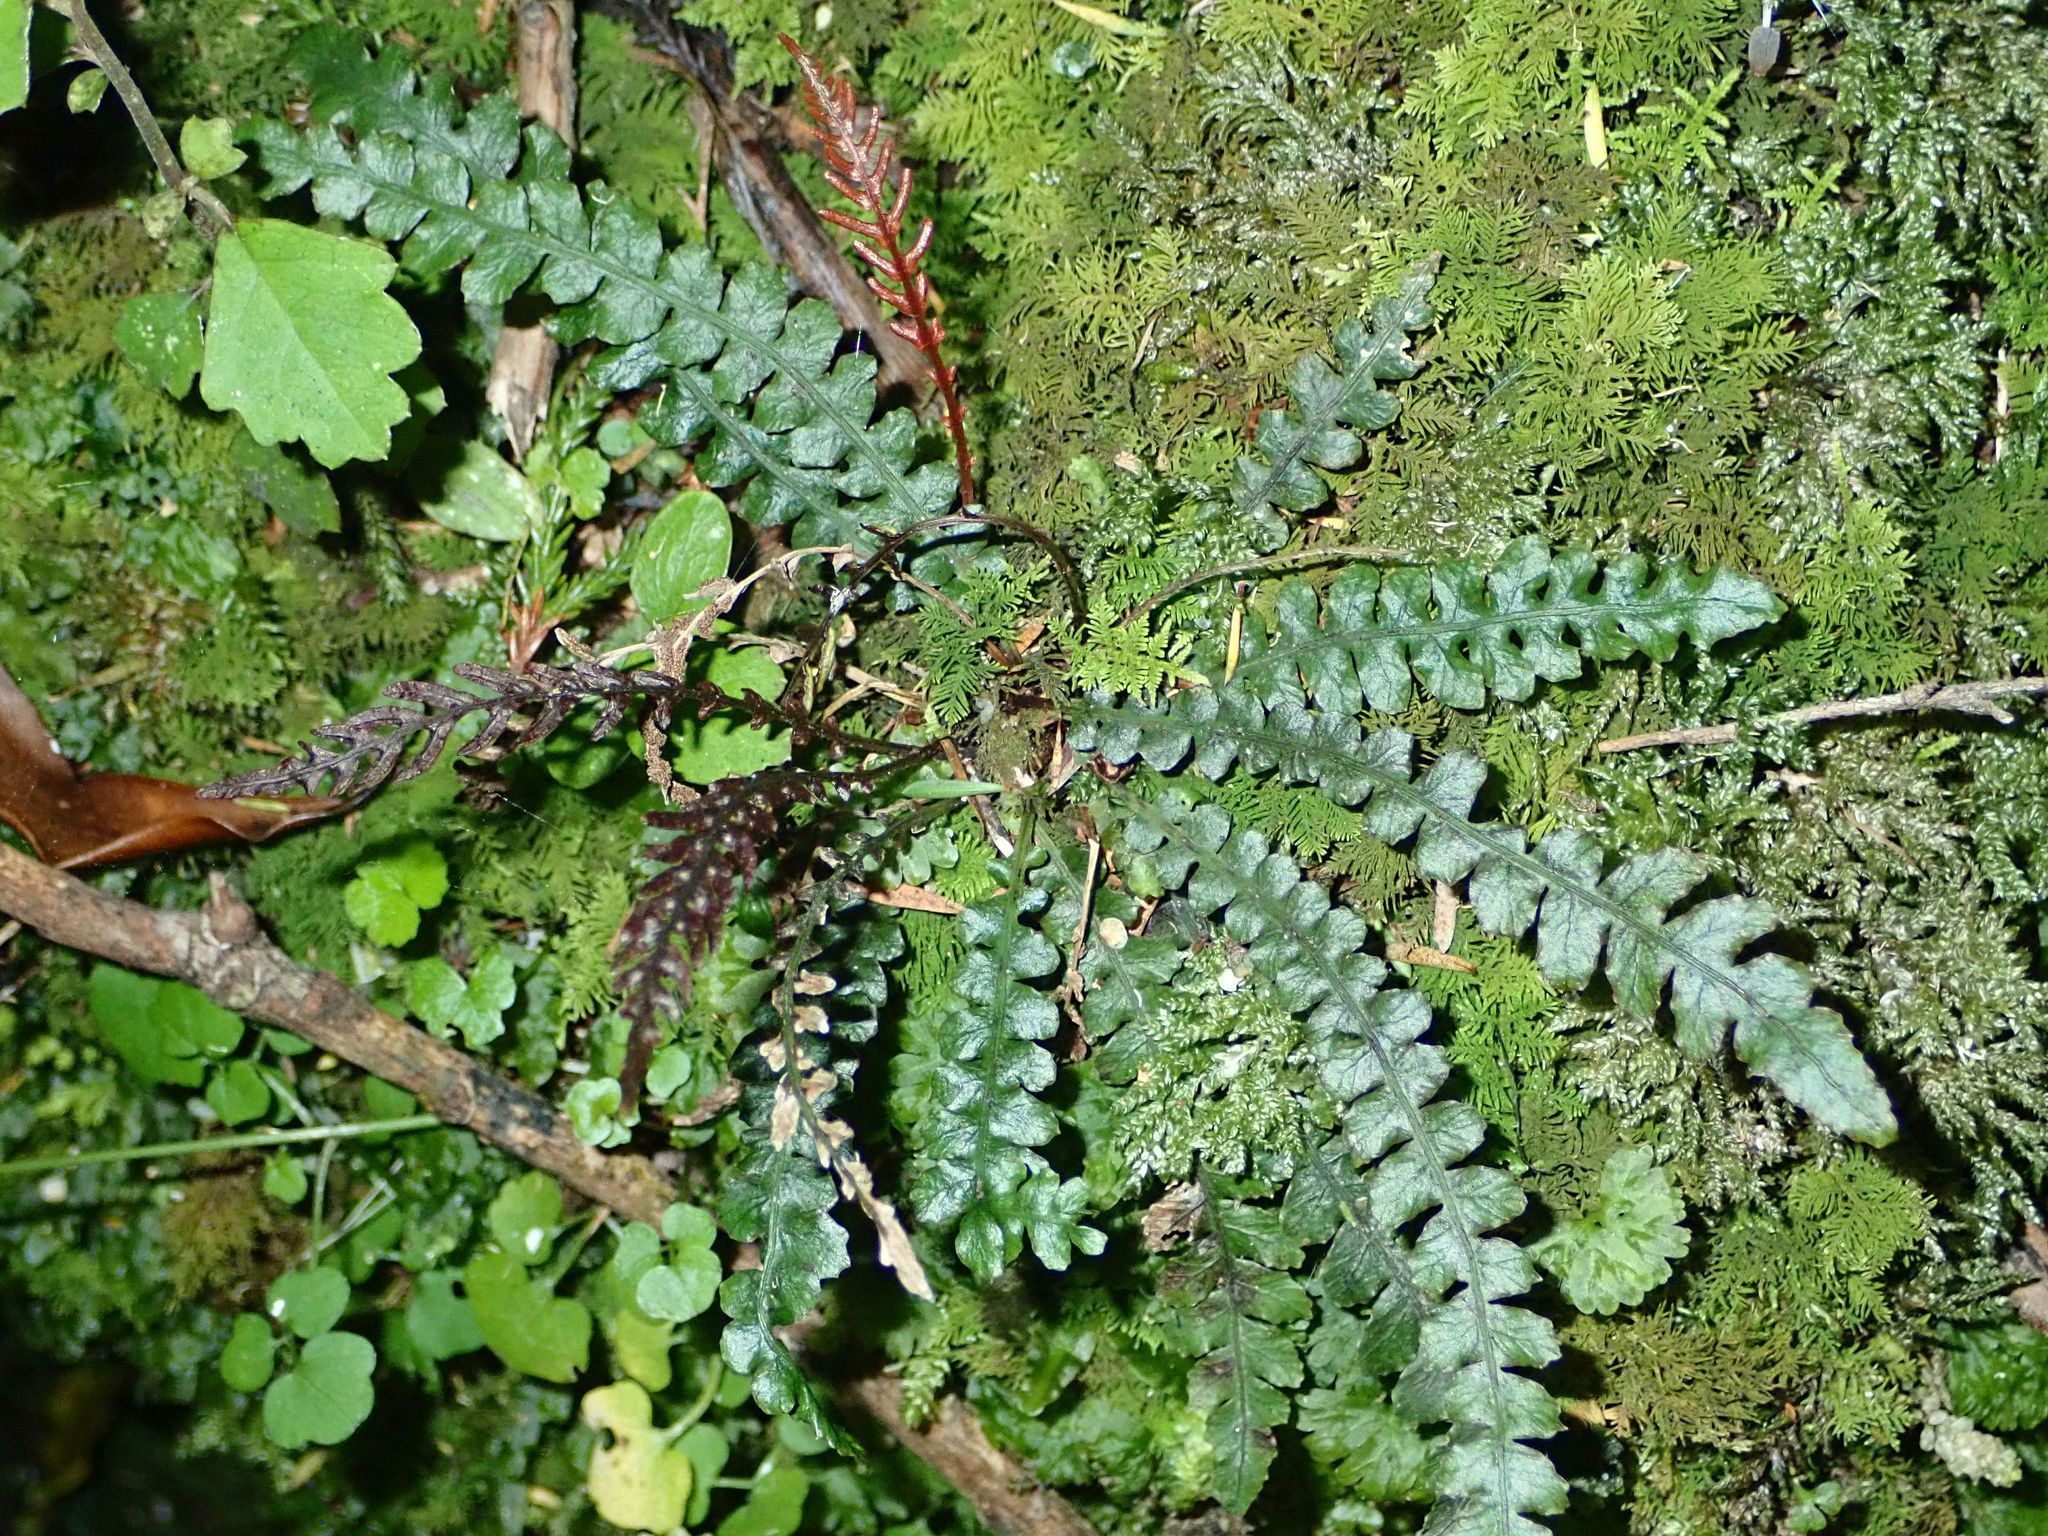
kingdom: Plantae
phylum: Tracheophyta
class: Polypodiopsida
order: Polypodiales
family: Blechnaceae
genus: Austroblechnum
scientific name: Austroblechnum membranaceum
